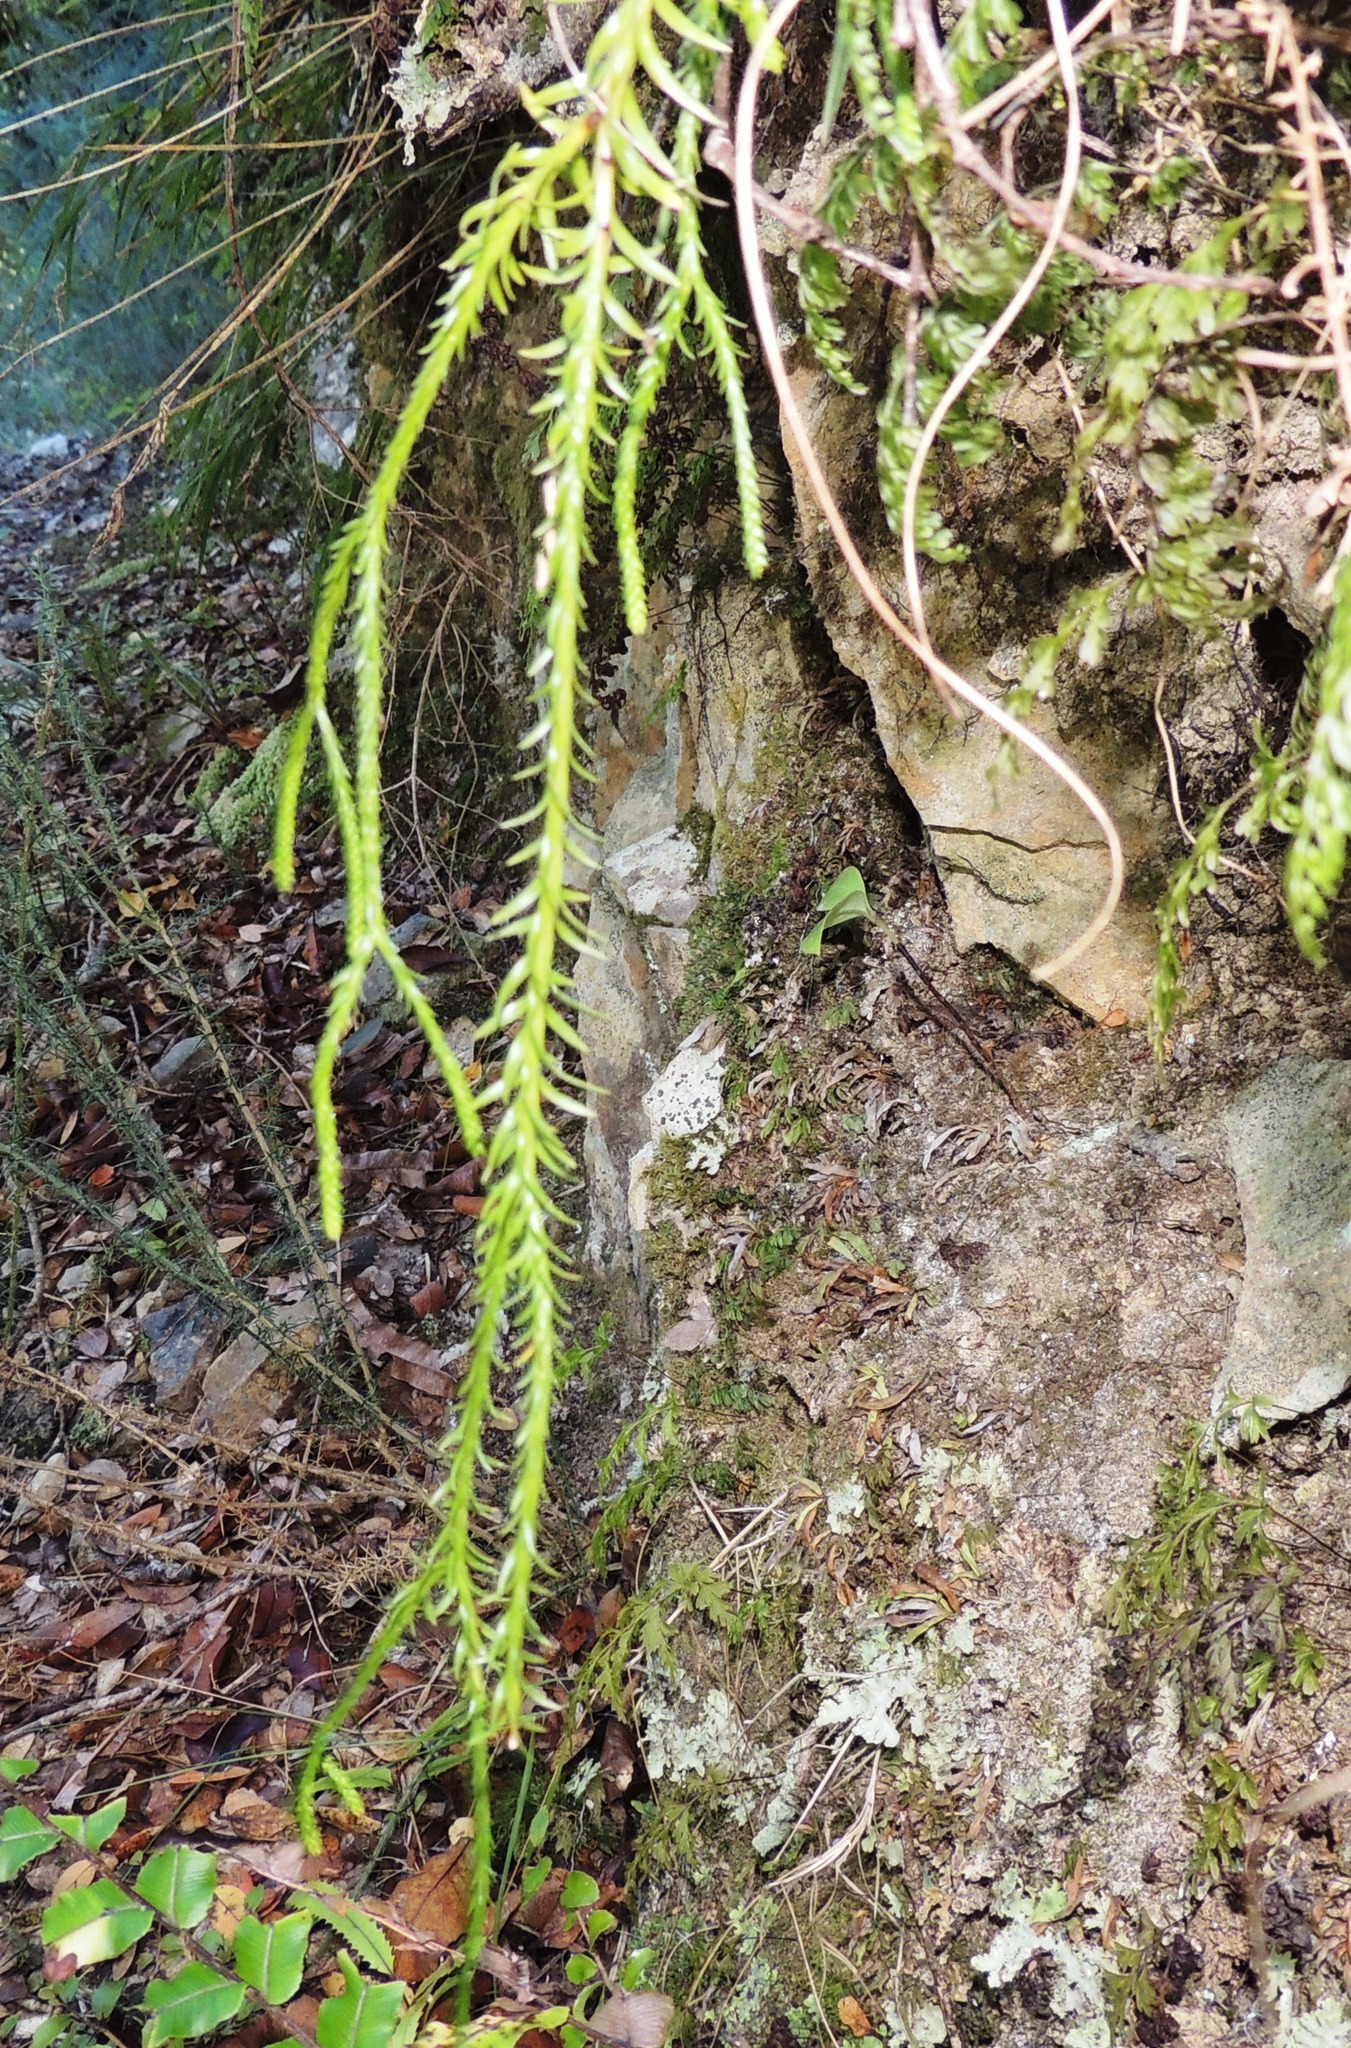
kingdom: Plantae
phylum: Tracheophyta
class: Lycopodiopsida
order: Lycopodiales
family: Lycopodiaceae
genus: Phlegmariurus
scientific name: Phlegmariurus varius
